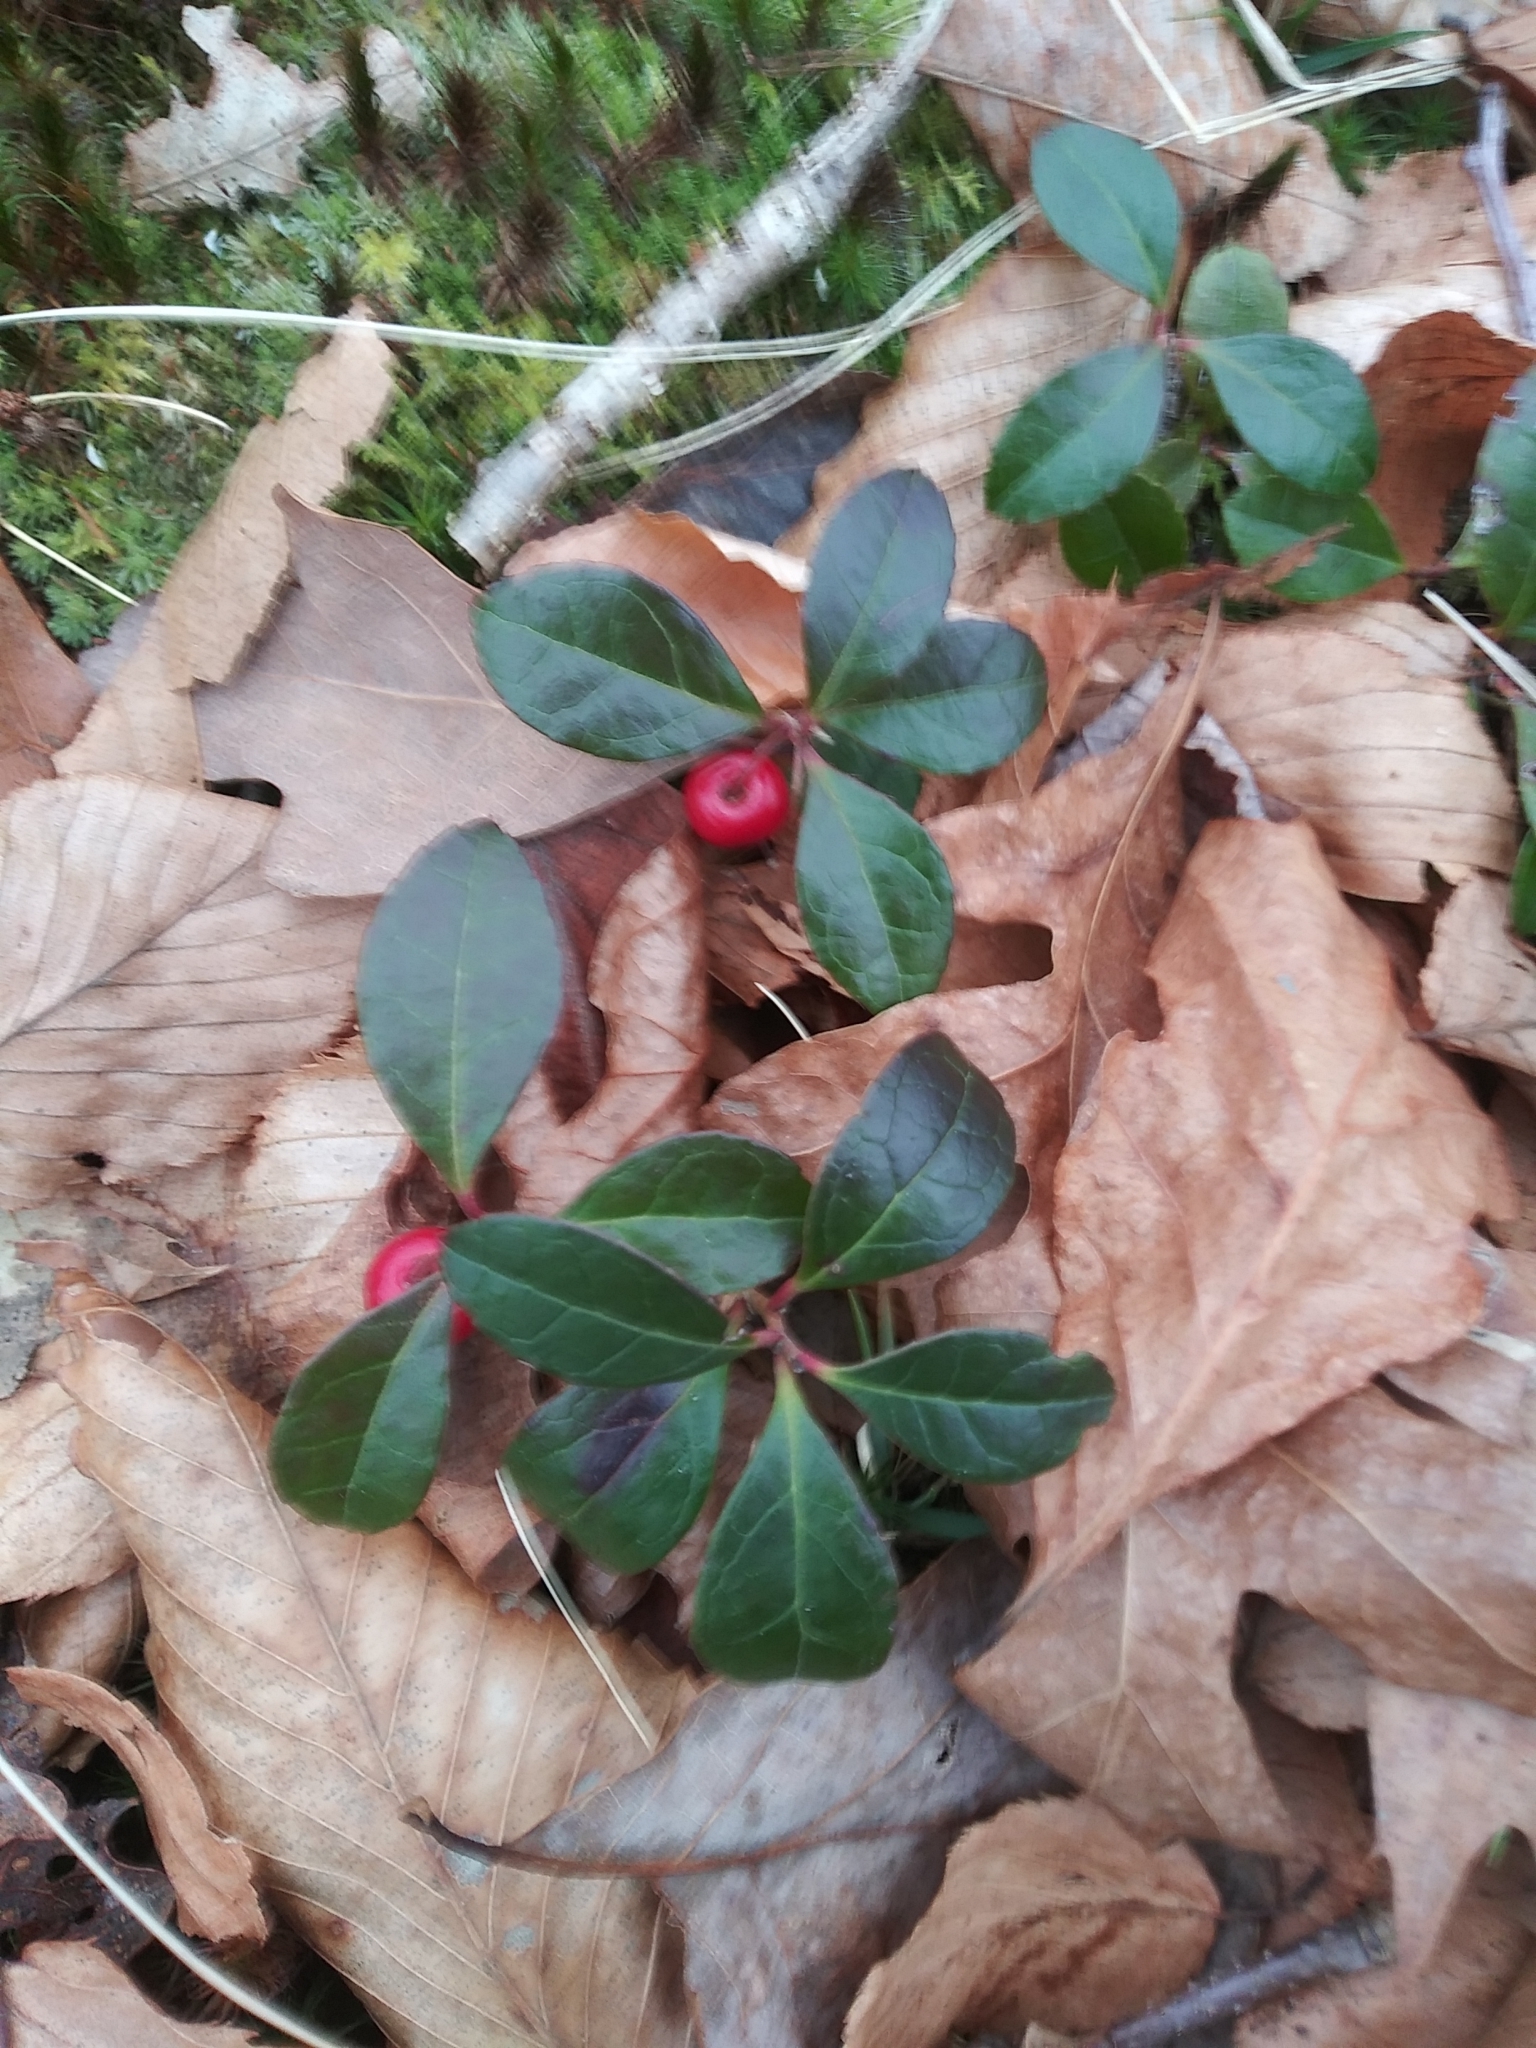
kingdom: Plantae
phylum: Tracheophyta
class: Magnoliopsida
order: Ericales
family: Ericaceae
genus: Gaultheria
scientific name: Gaultheria procumbens
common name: Checkerberry
